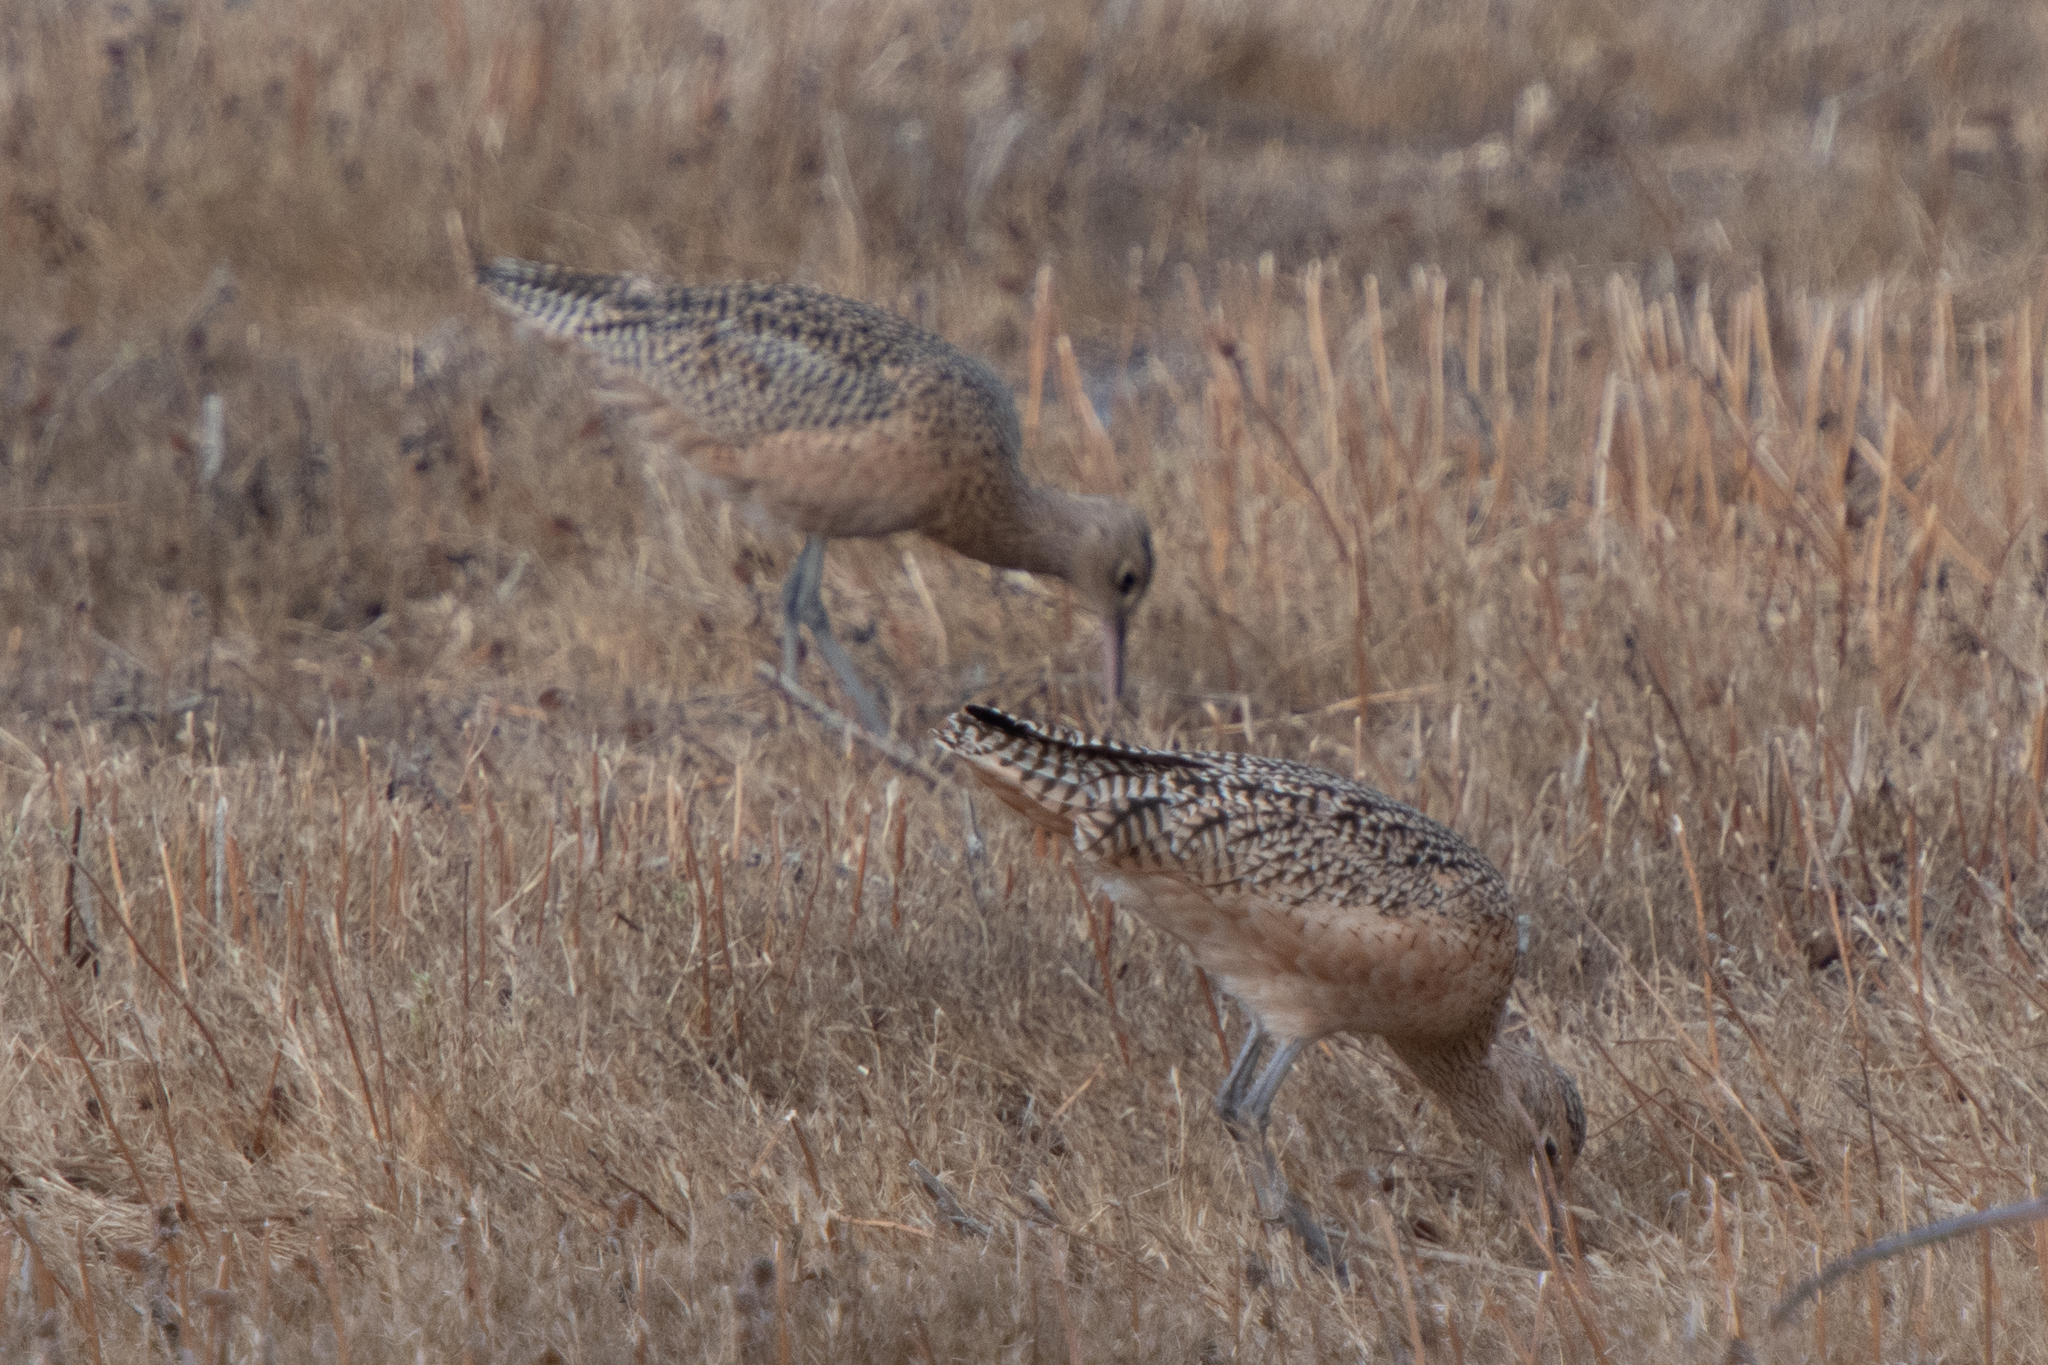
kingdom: Animalia
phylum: Chordata
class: Aves
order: Charadriiformes
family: Scolopacidae
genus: Numenius
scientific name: Numenius americanus
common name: Long-billed curlew
